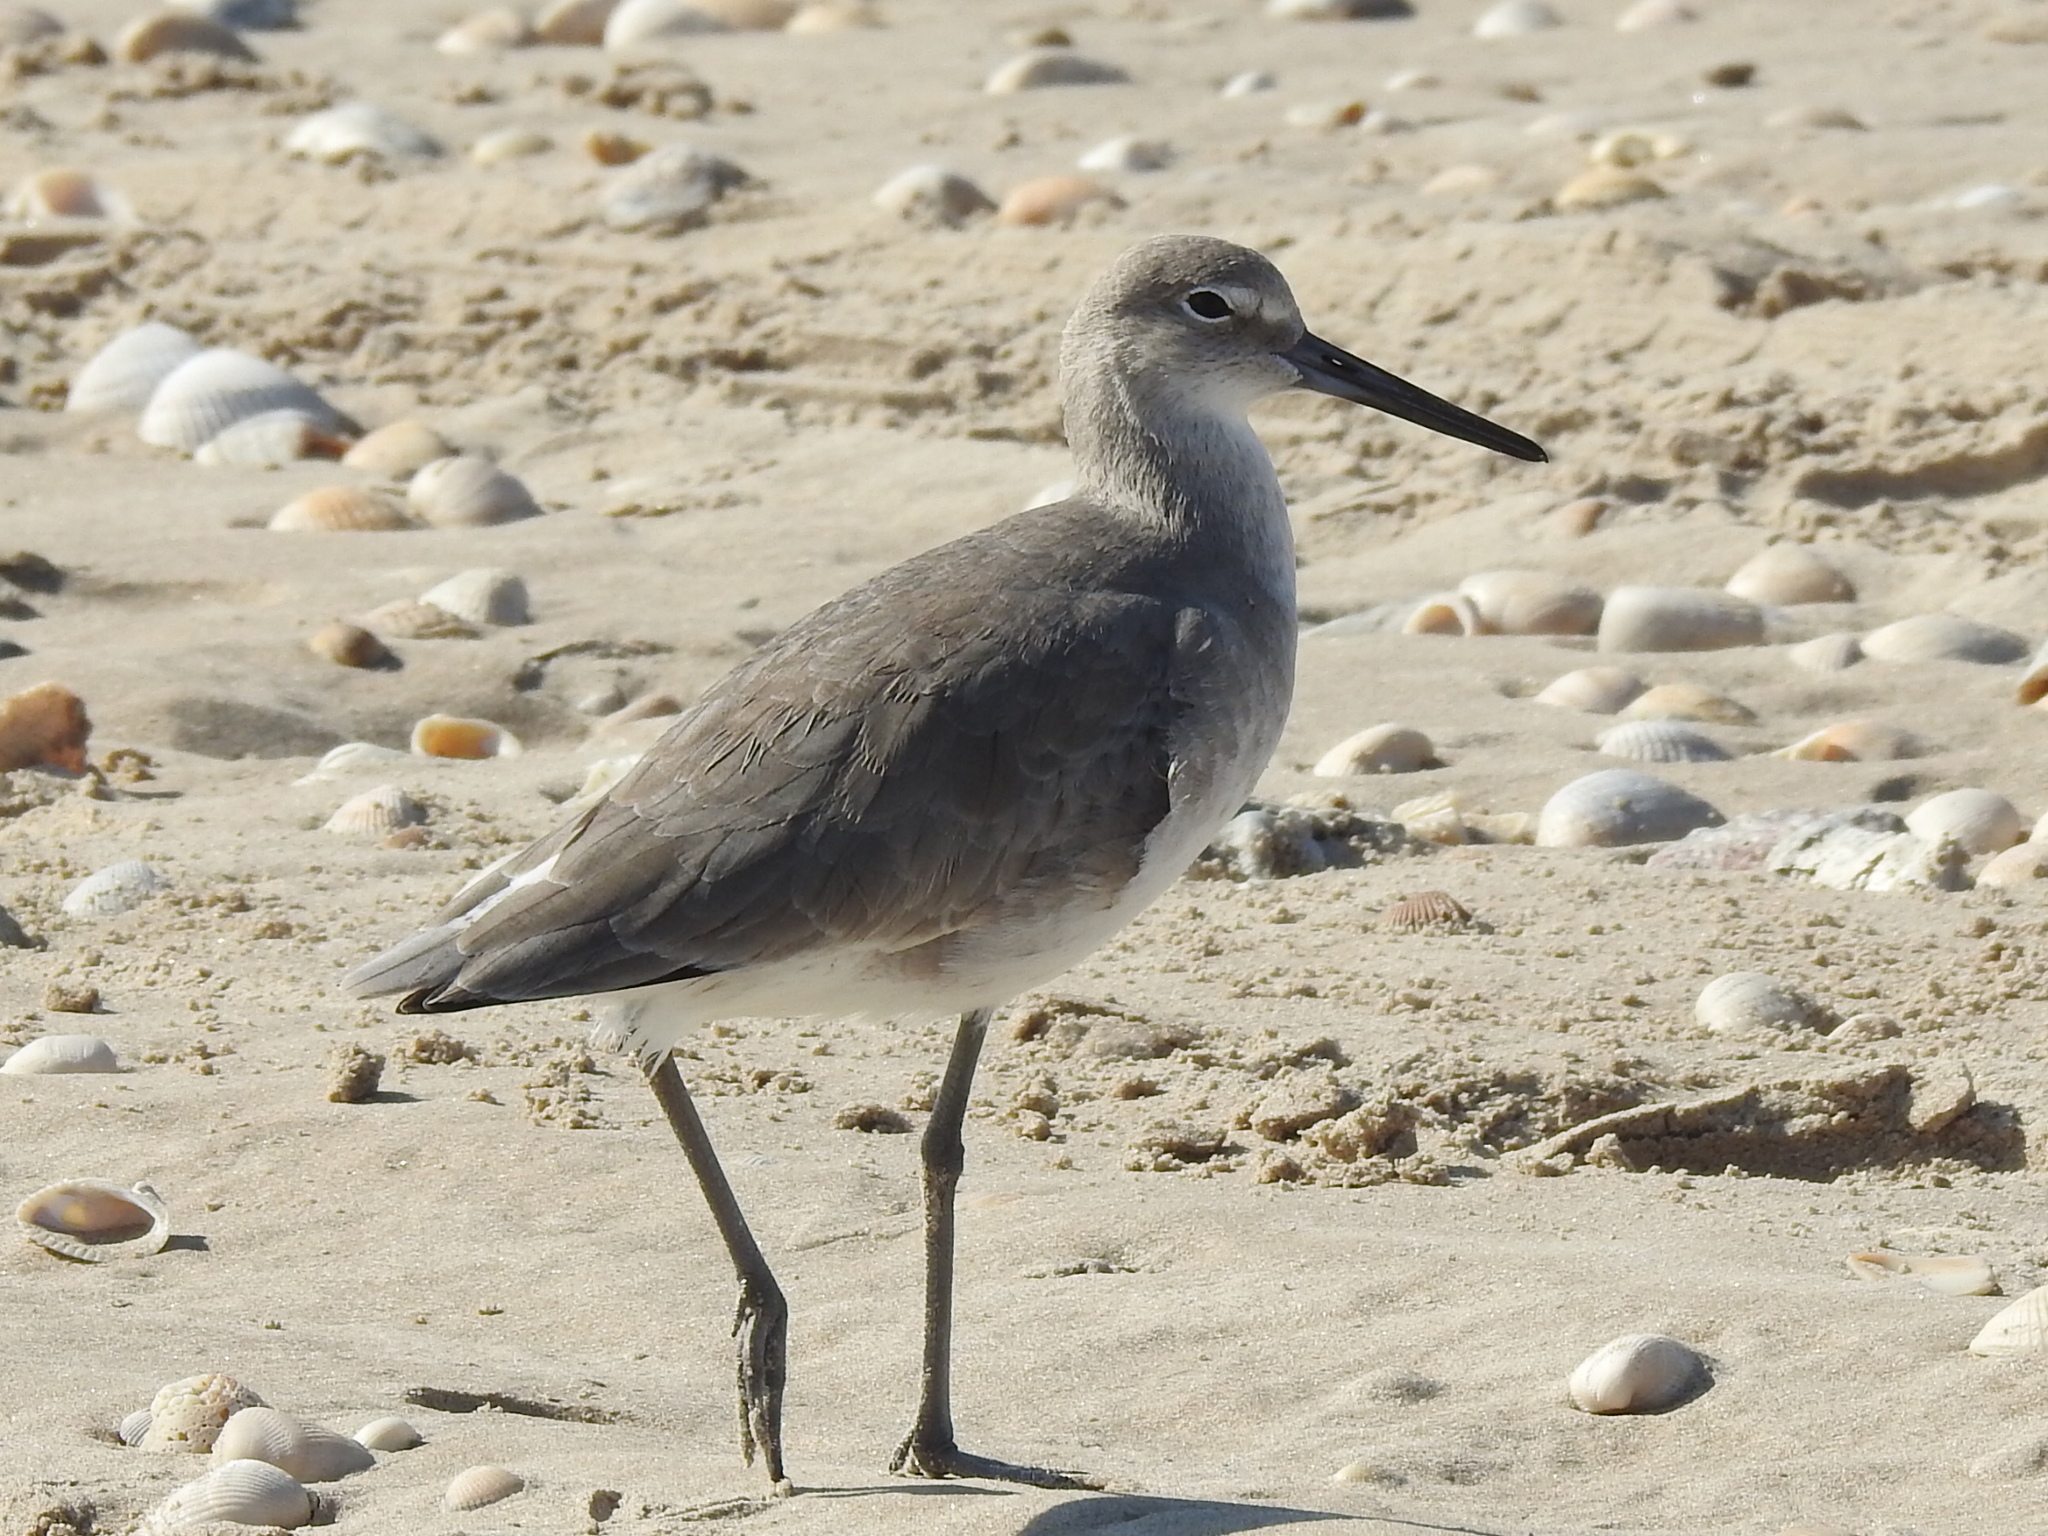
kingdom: Animalia
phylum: Chordata
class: Aves
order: Charadriiformes
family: Scolopacidae
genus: Tringa
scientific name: Tringa semipalmata
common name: Willet
